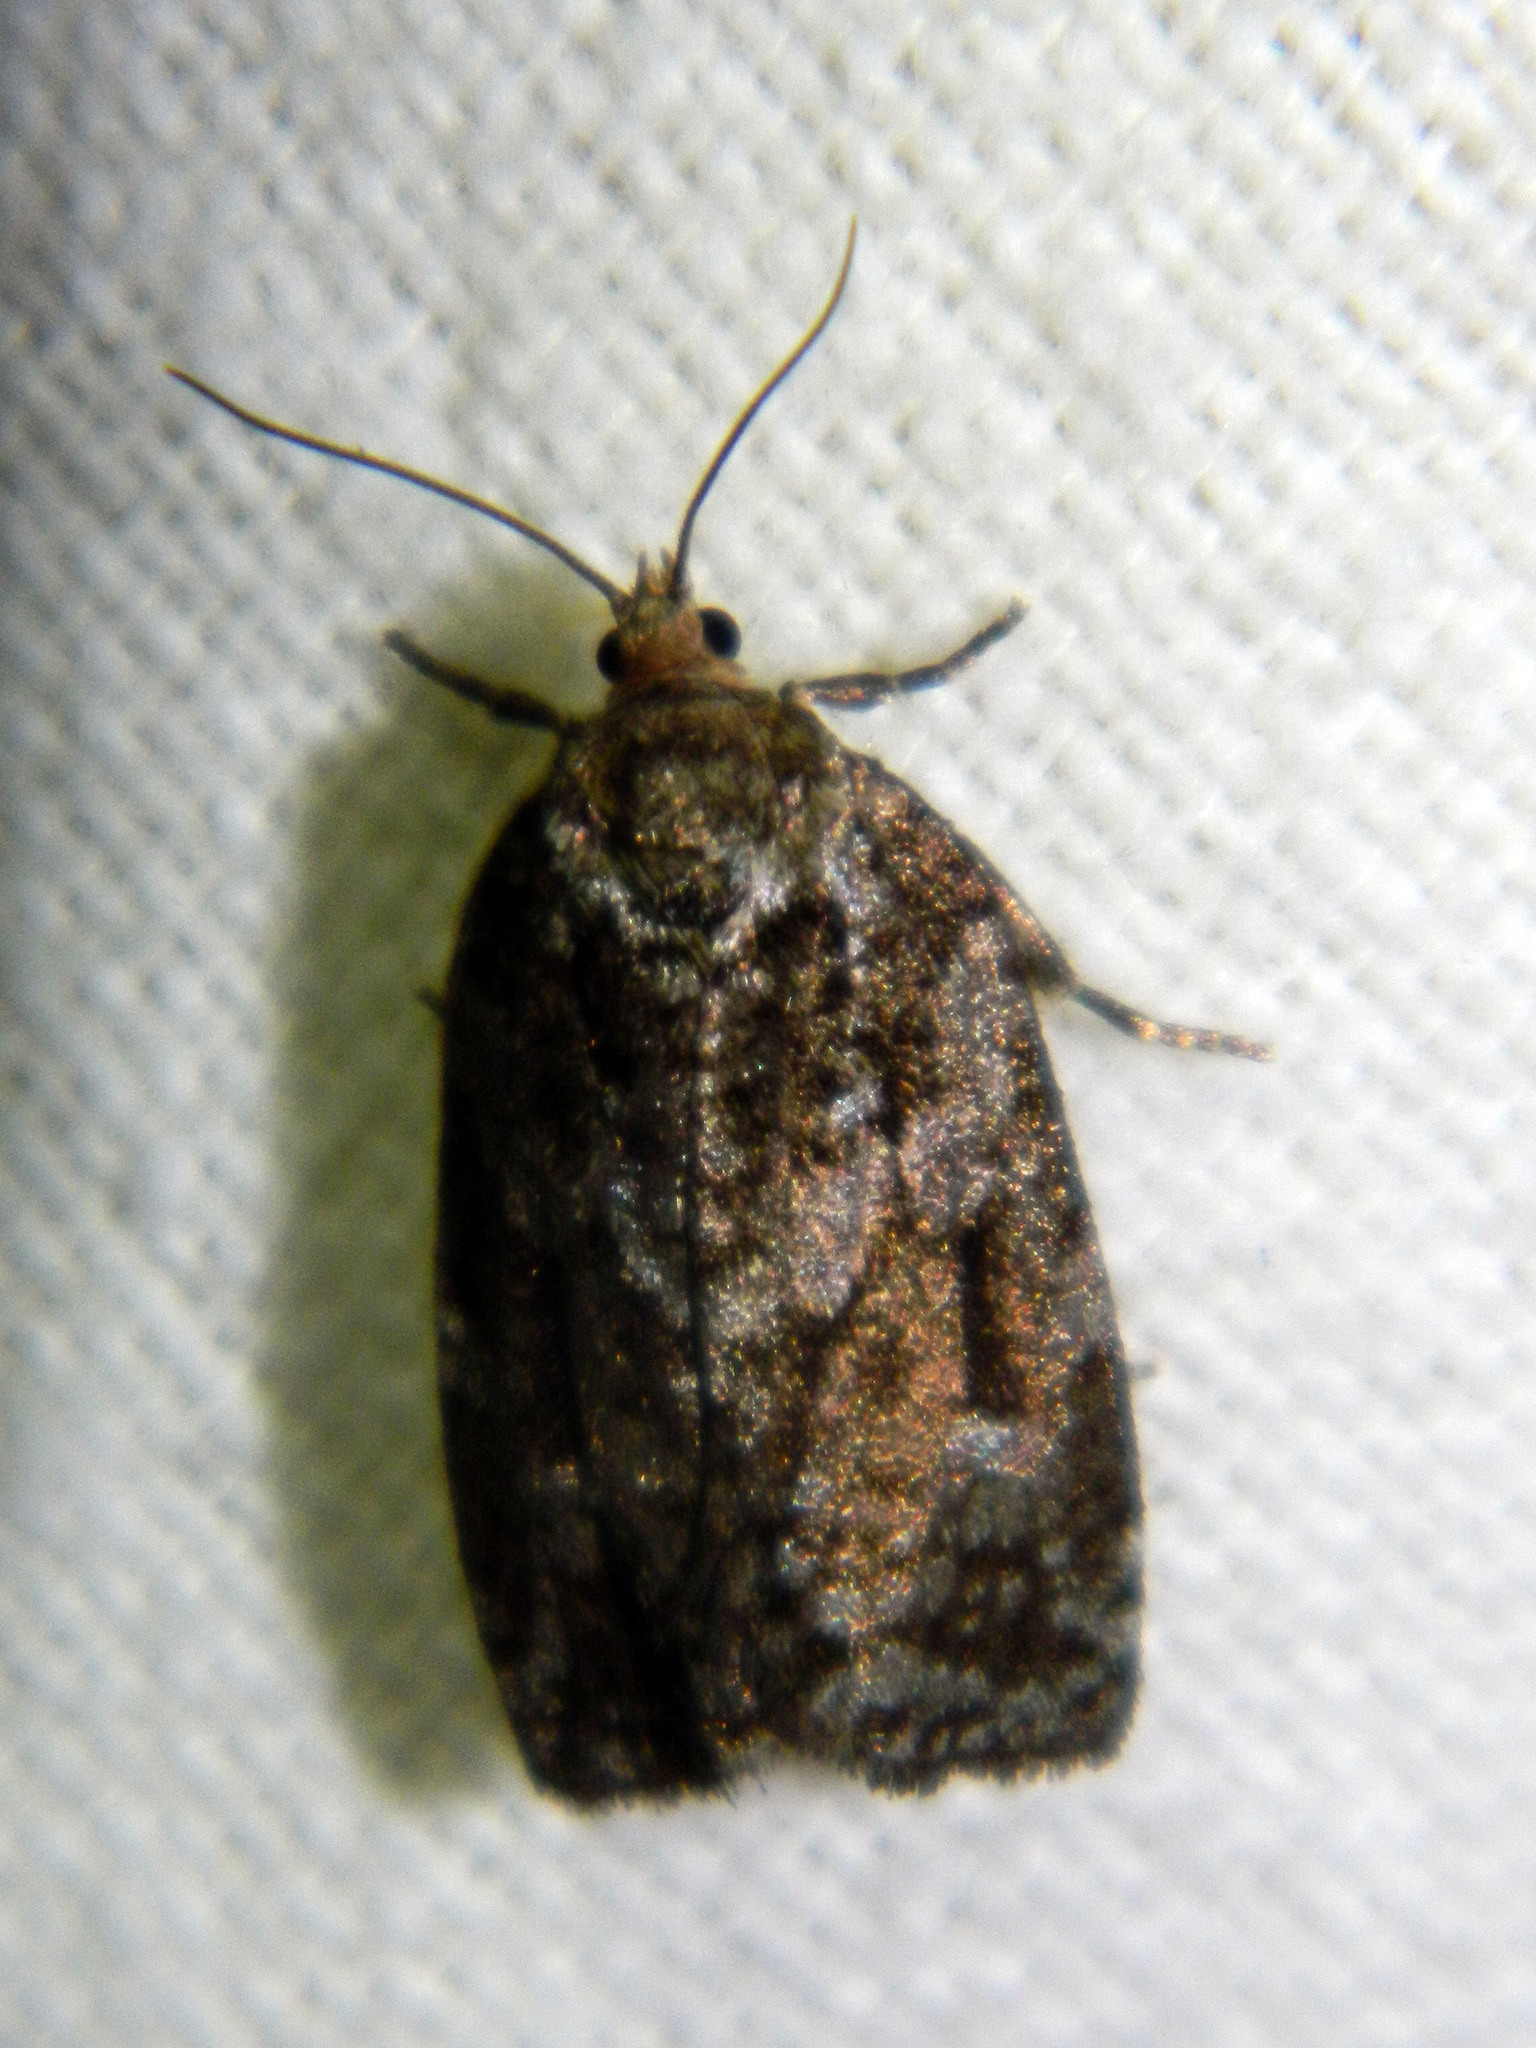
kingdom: Animalia
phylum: Arthropoda
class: Insecta
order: Lepidoptera
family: Tortricidae
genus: Choristoneura
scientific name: Choristoneura fumiferana
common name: Spruce budworm
